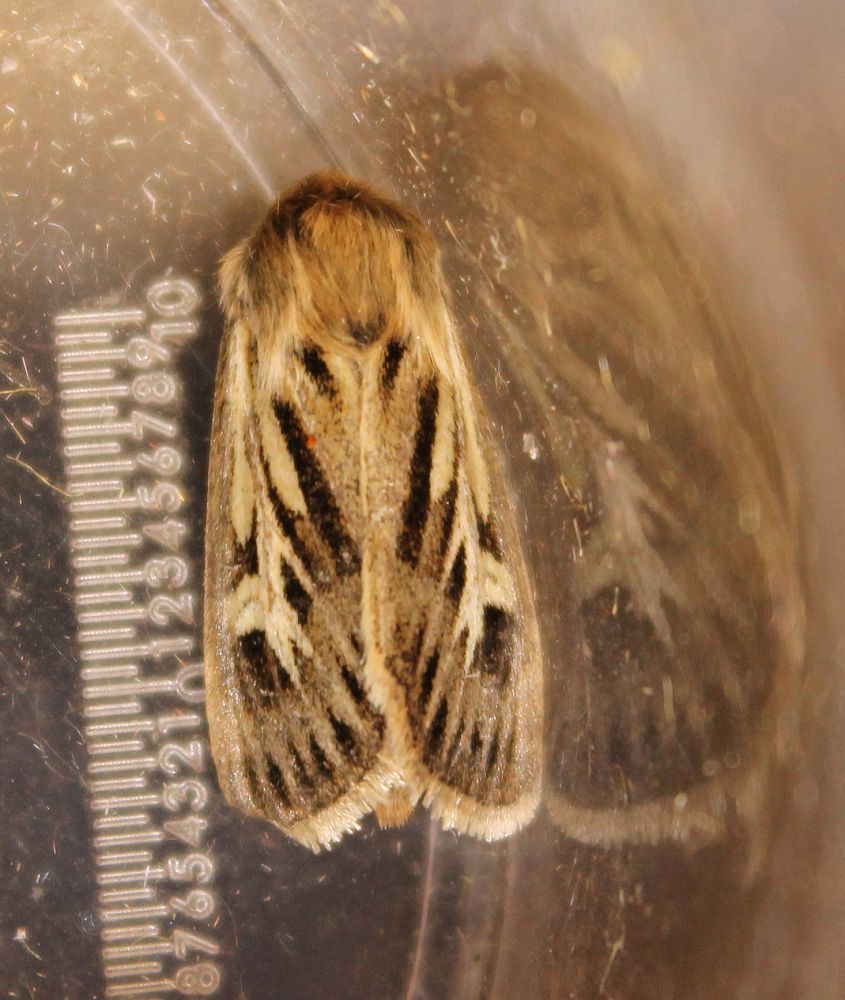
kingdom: Animalia
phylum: Arthropoda
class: Insecta
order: Lepidoptera
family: Noctuidae
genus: Cerapteryx
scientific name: Cerapteryx graminis
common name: Antler moth
